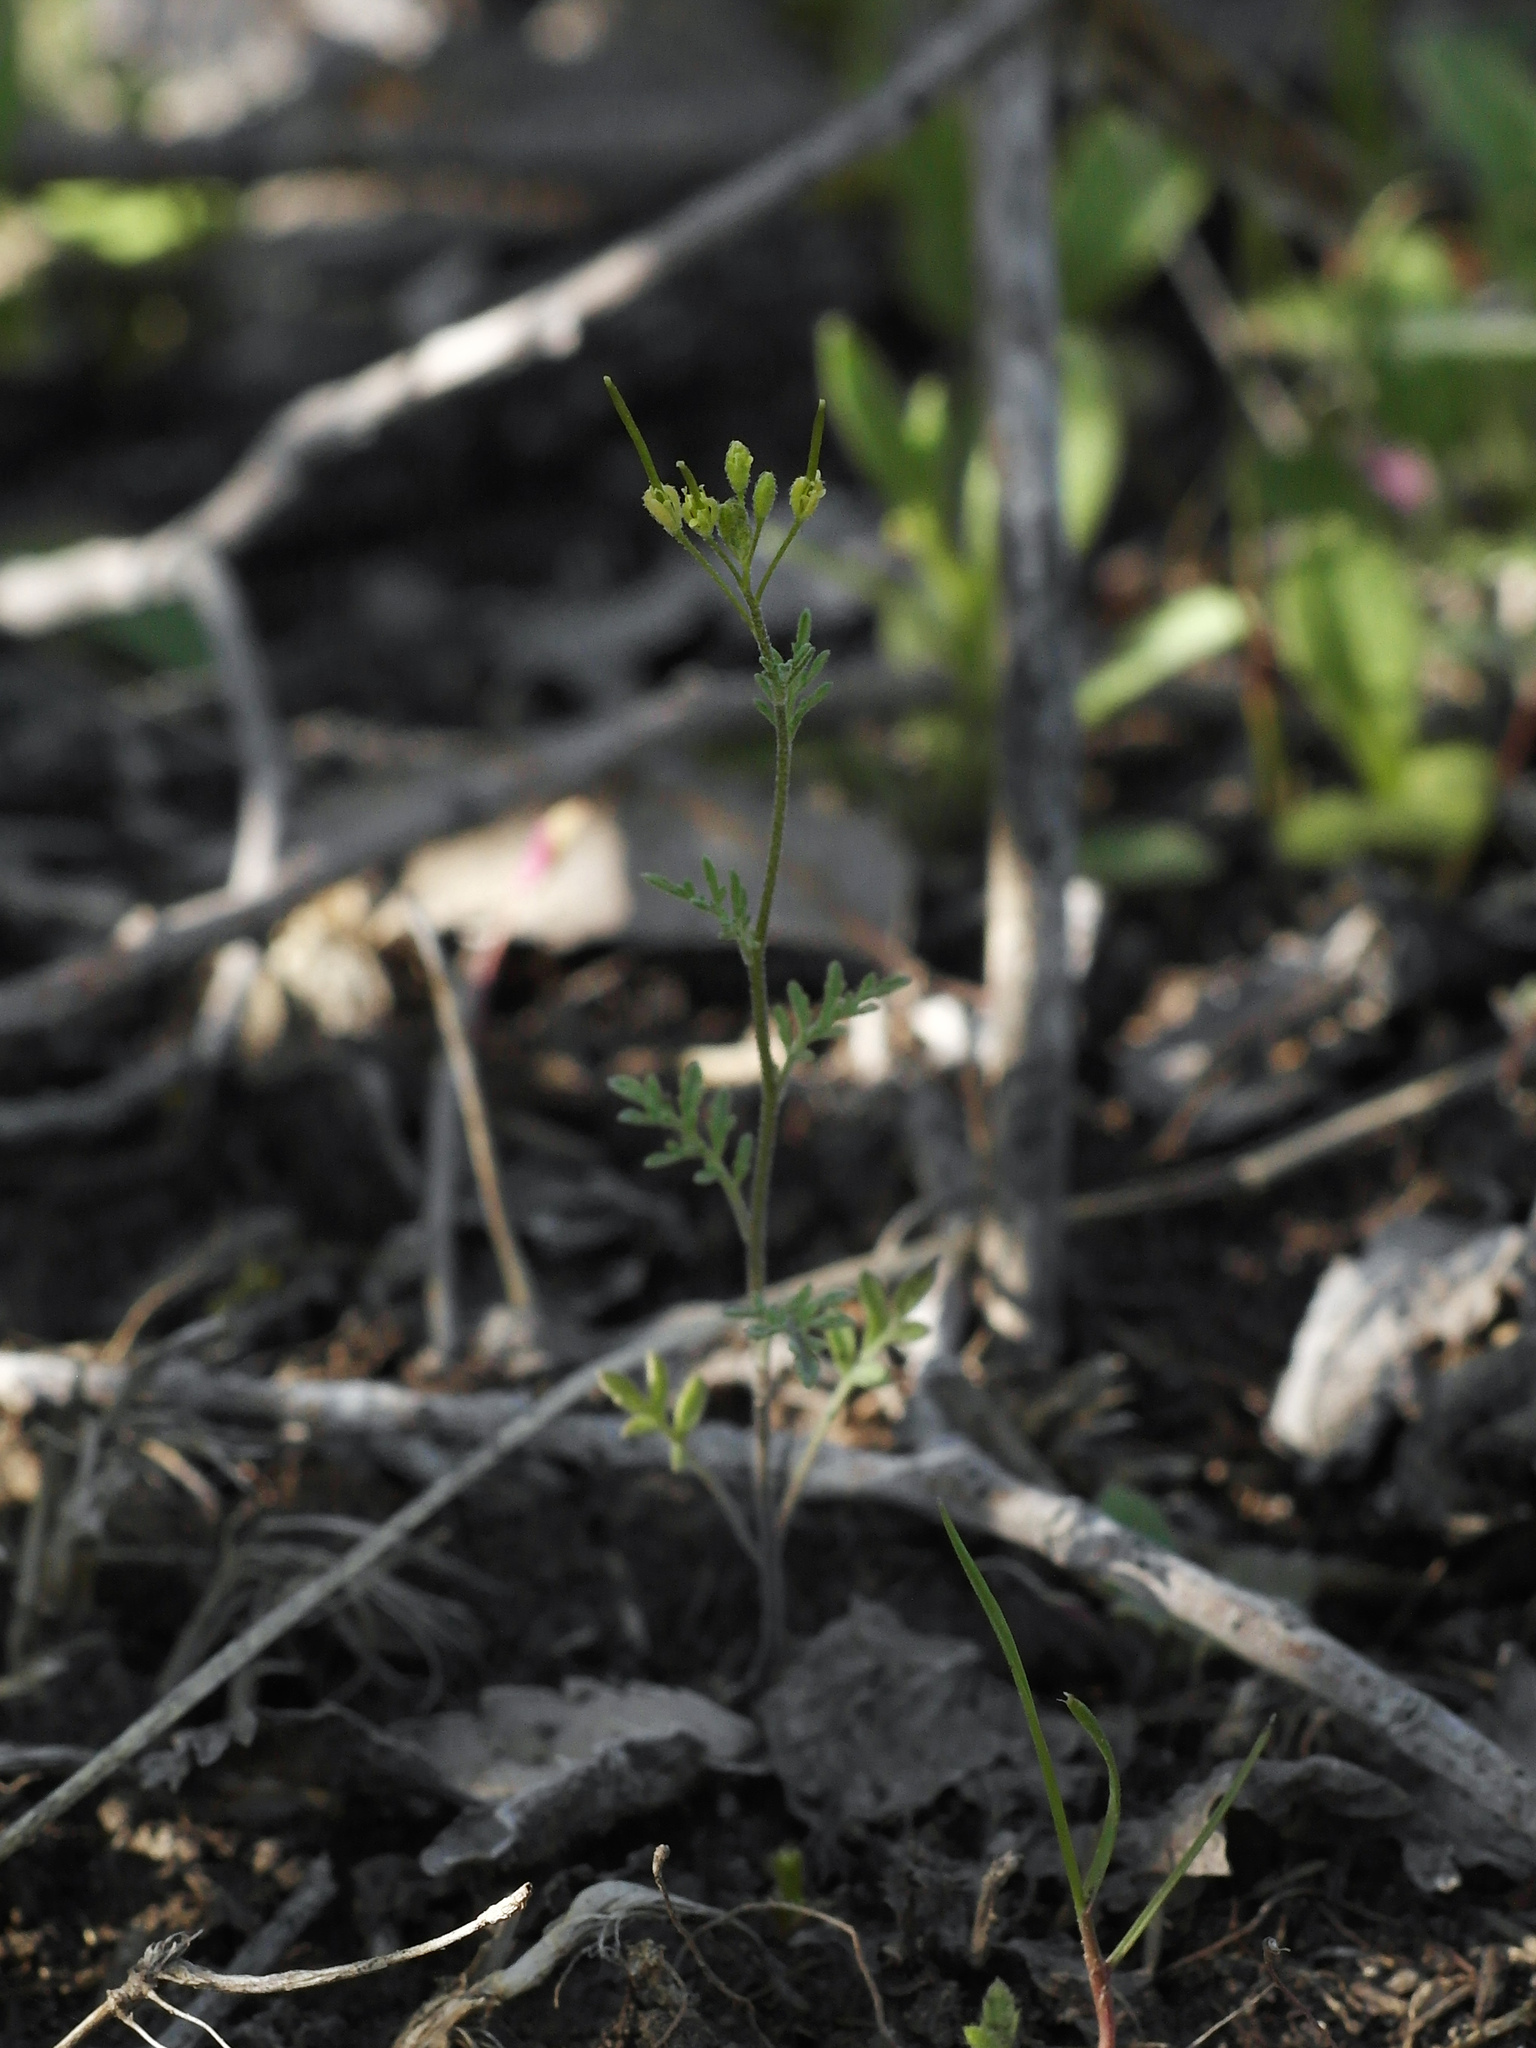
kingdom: Plantae
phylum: Tracheophyta
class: Magnoliopsida
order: Brassicales
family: Brassicaceae
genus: Descurainia
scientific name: Descurainia sophia
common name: Flixweed
